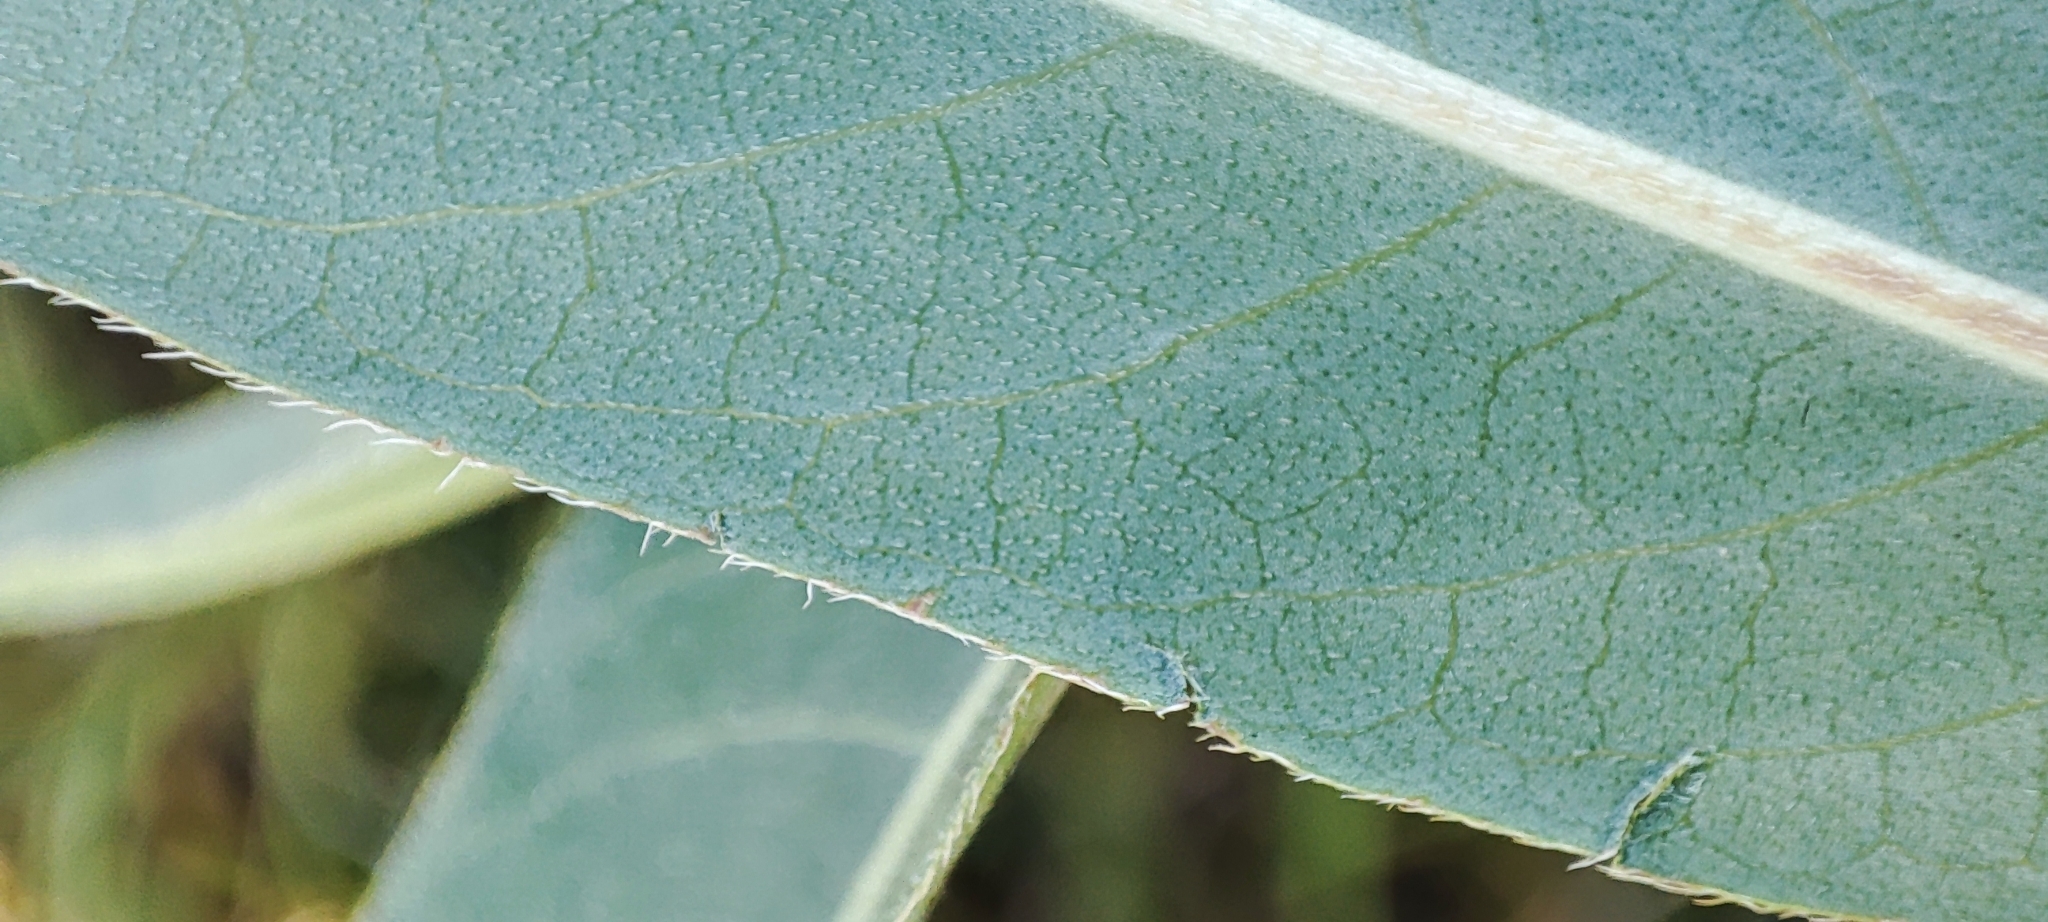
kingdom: Plantae
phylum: Tracheophyta
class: Magnoliopsida
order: Caryophyllales
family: Polygonaceae
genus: Persicaria
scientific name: Persicaria amphibia
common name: Amphibious bistort
